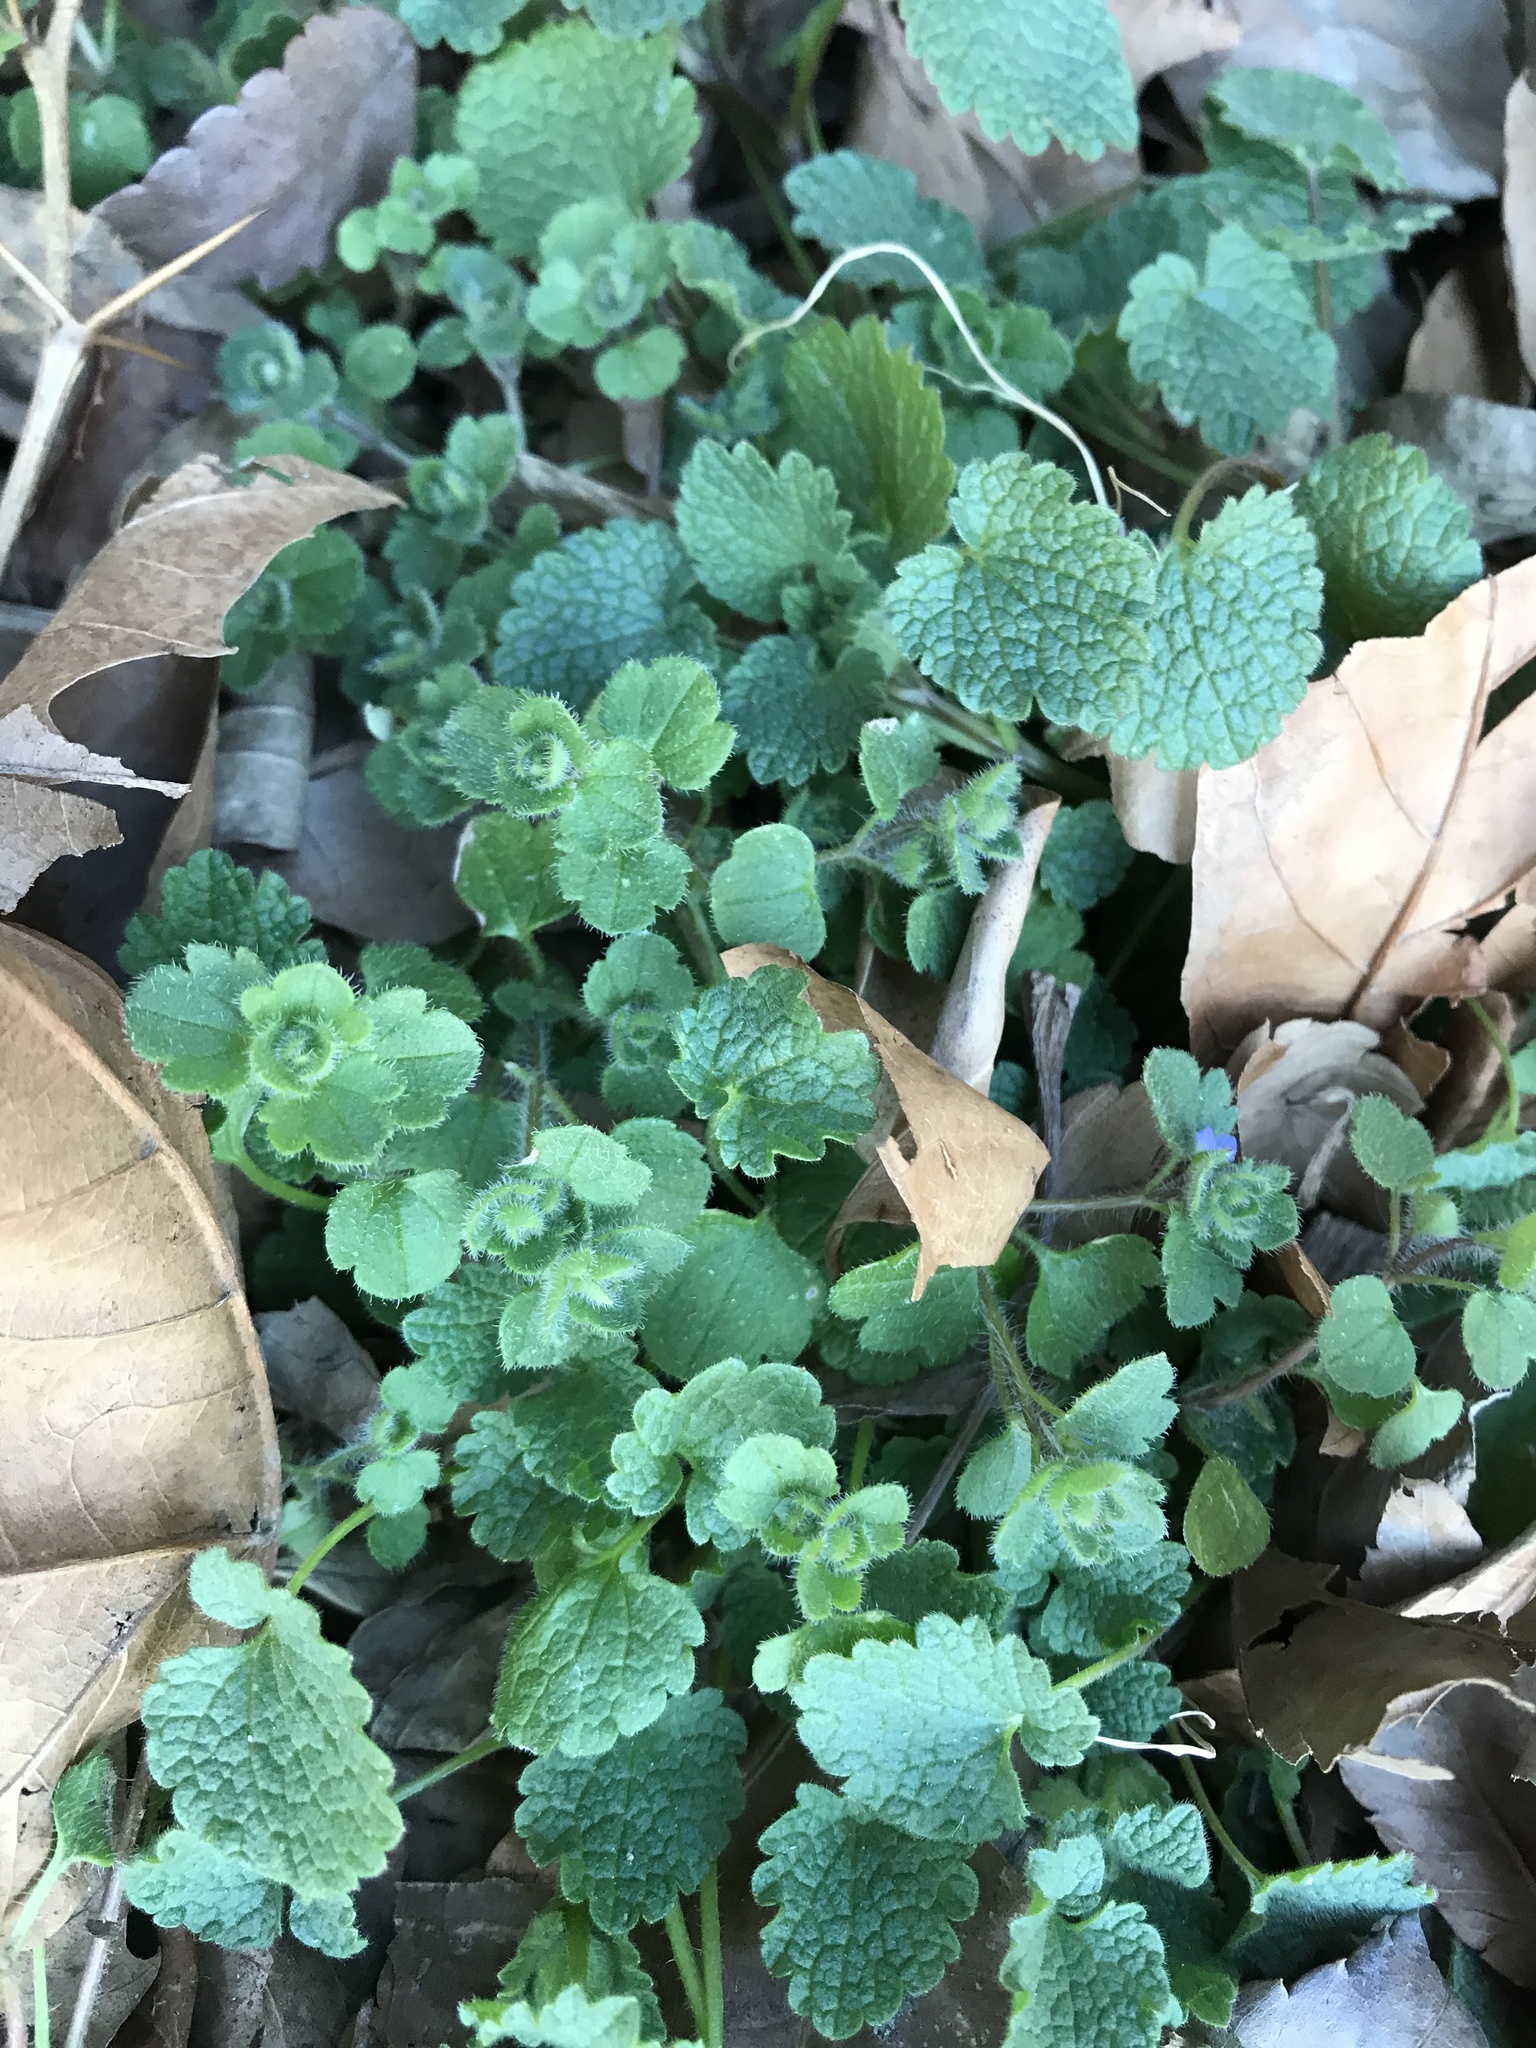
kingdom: Plantae
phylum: Tracheophyta
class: Magnoliopsida
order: Lamiales
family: Lamiaceae
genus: Lamium
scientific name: Lamium purpureum
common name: Red dead-nettle
